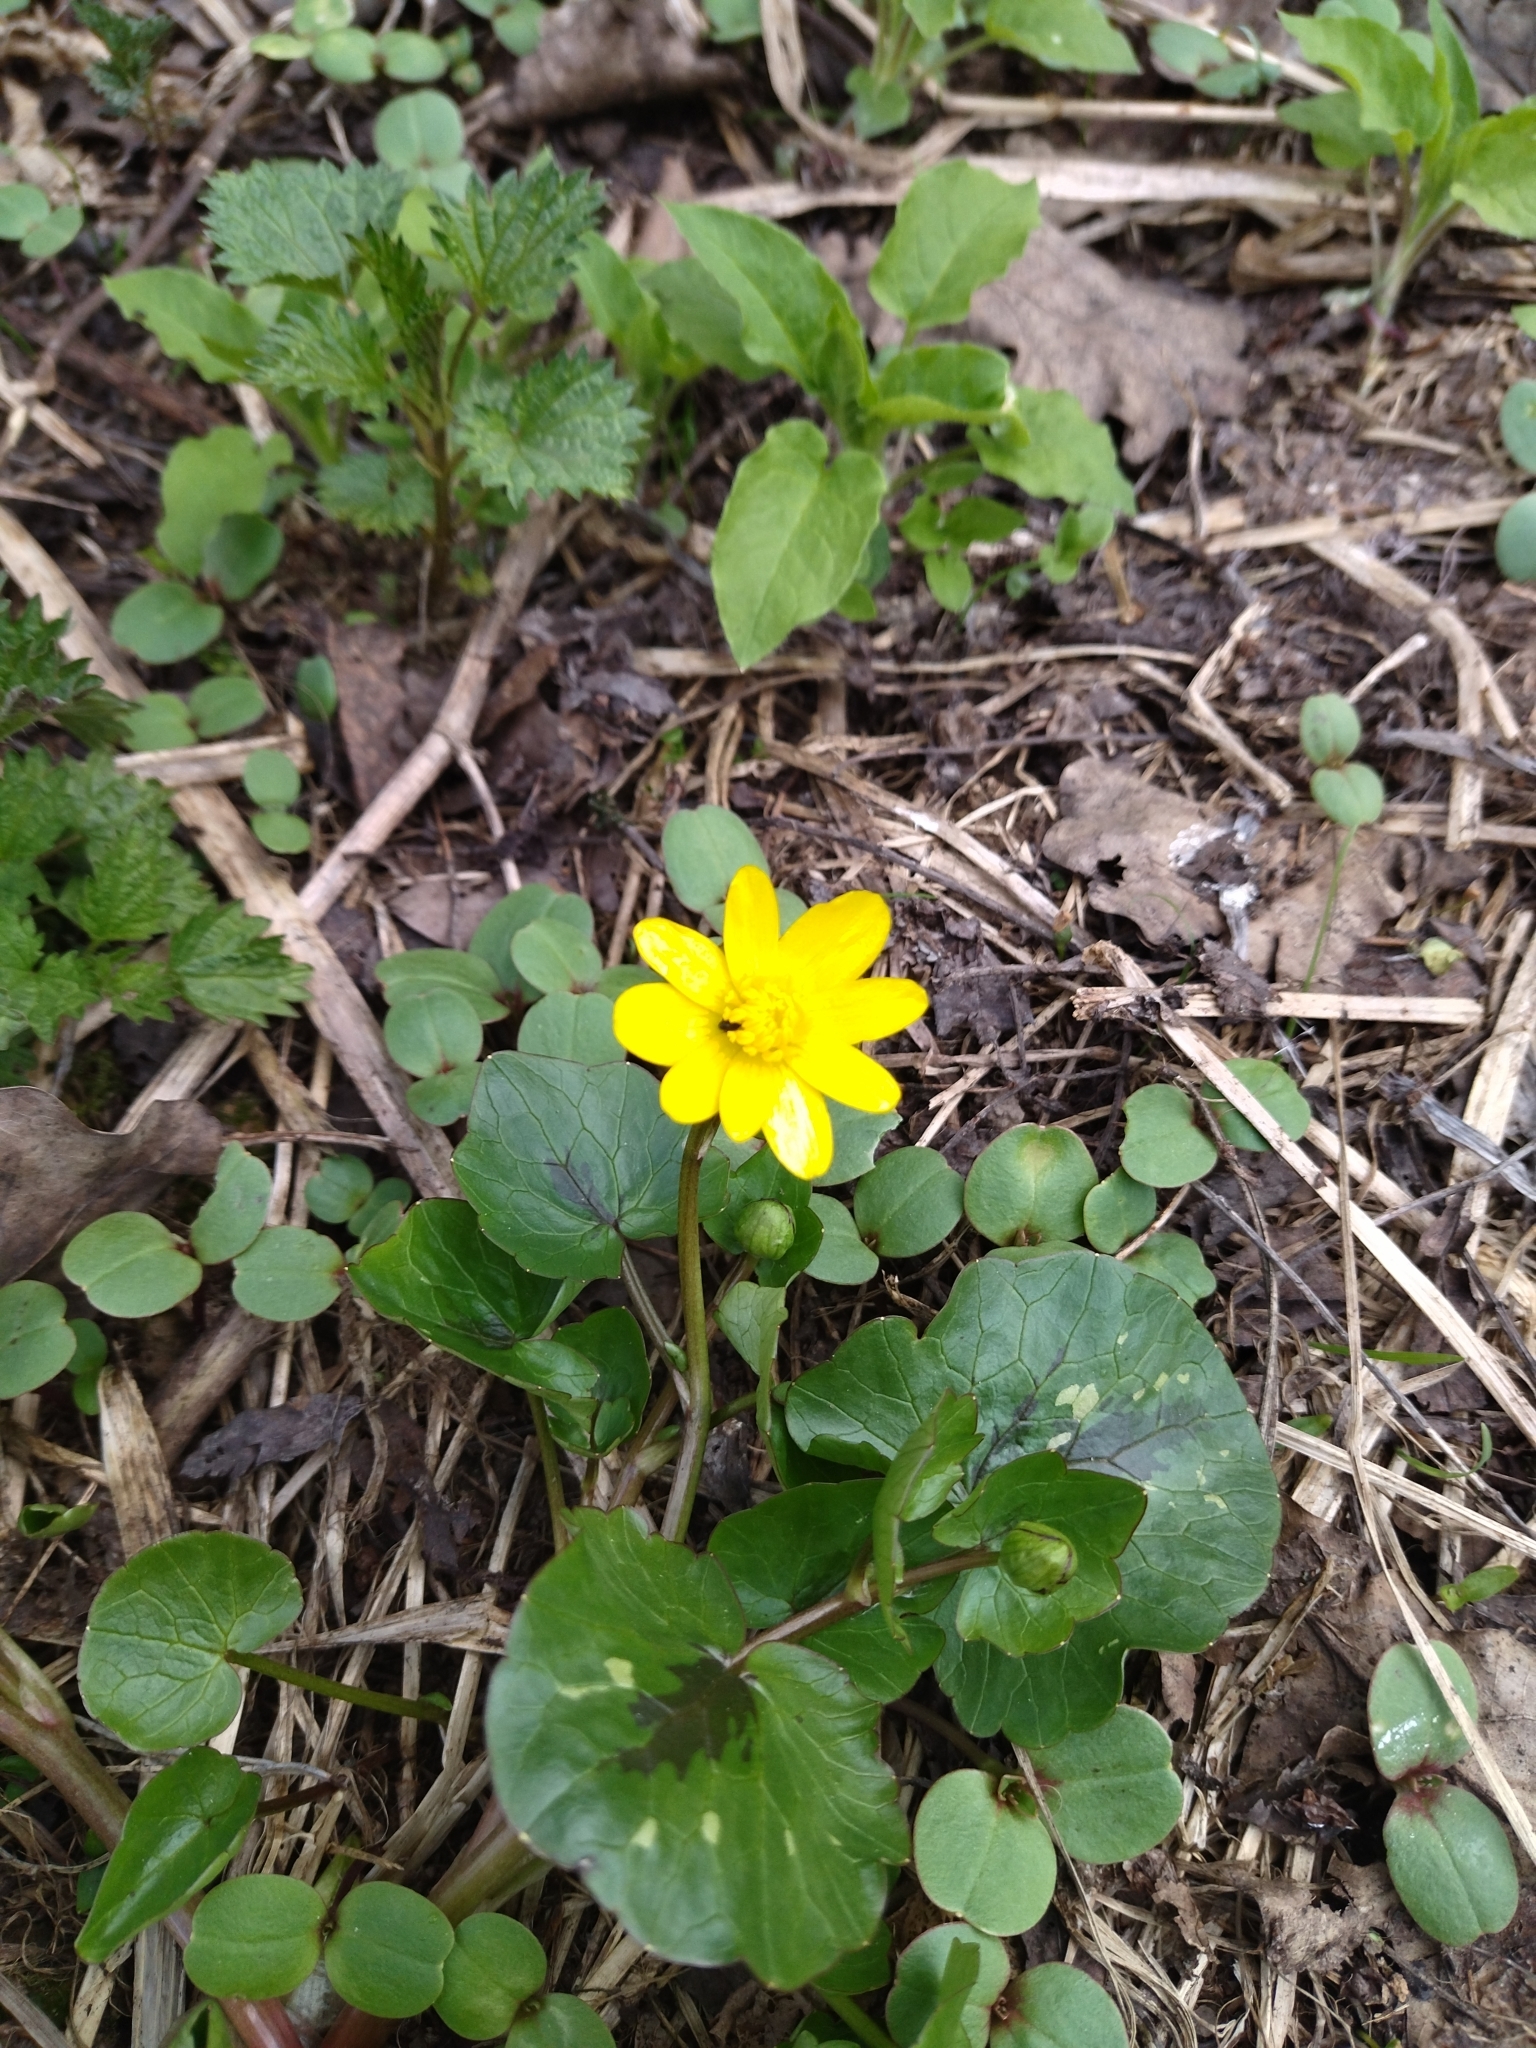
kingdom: Plantae
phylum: Tracheophyta
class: Magnoliopsida
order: Ranunculales
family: Ranunculaceae
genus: Ficaria
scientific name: Ficaria verna
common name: Lesser celandine
